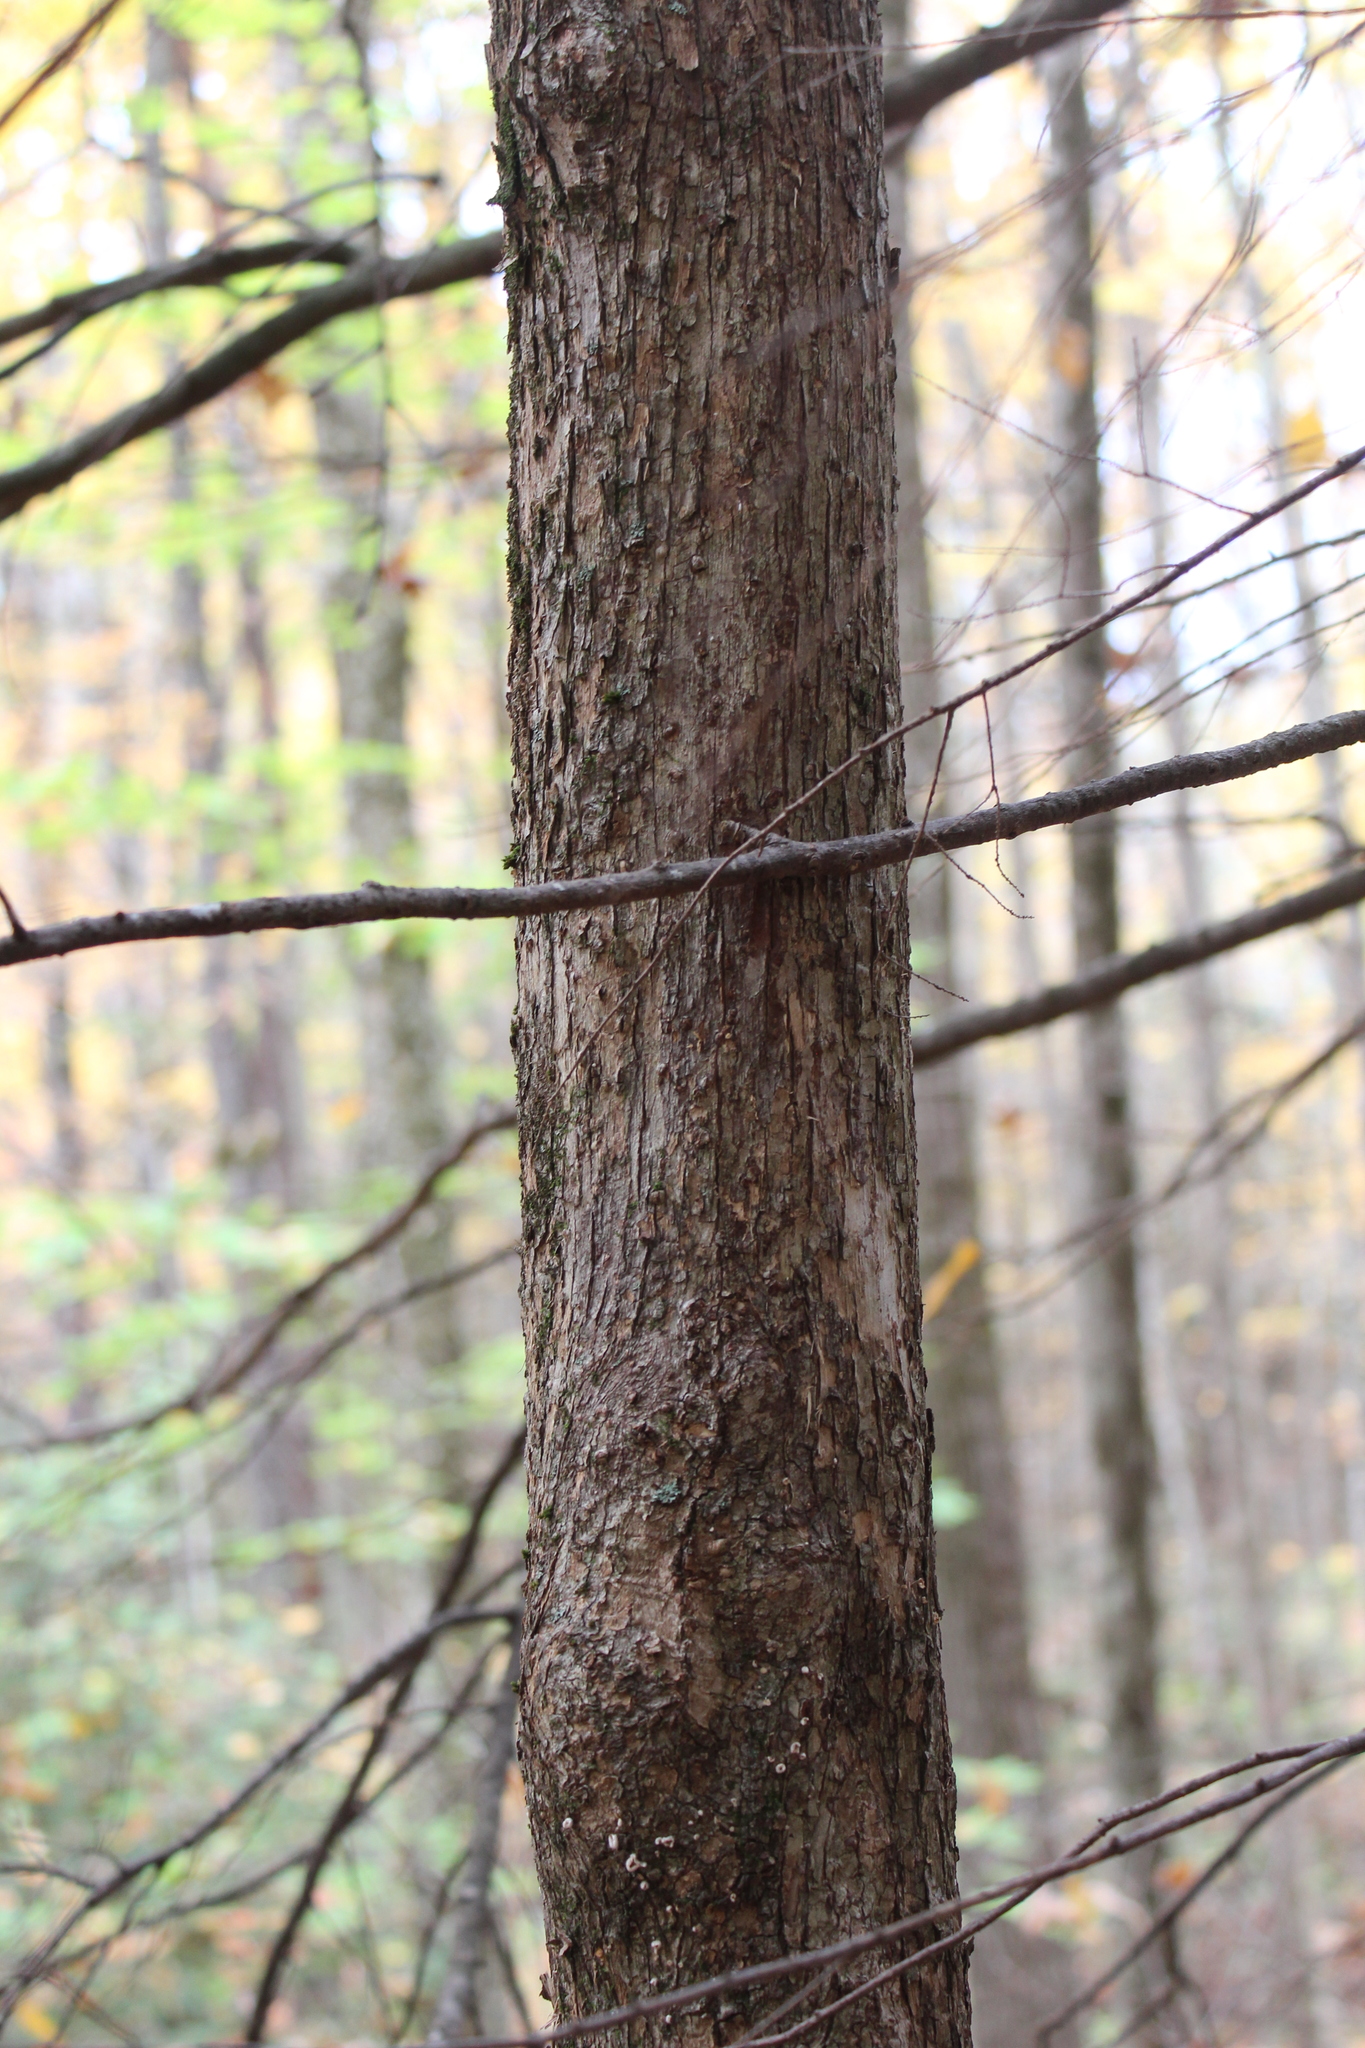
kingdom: Plantae
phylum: Tracheophyta
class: Magnoliopsida
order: Fagales
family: Betulaceae
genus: Ostrya
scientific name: Ostrya virginiana
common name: Ironwood
